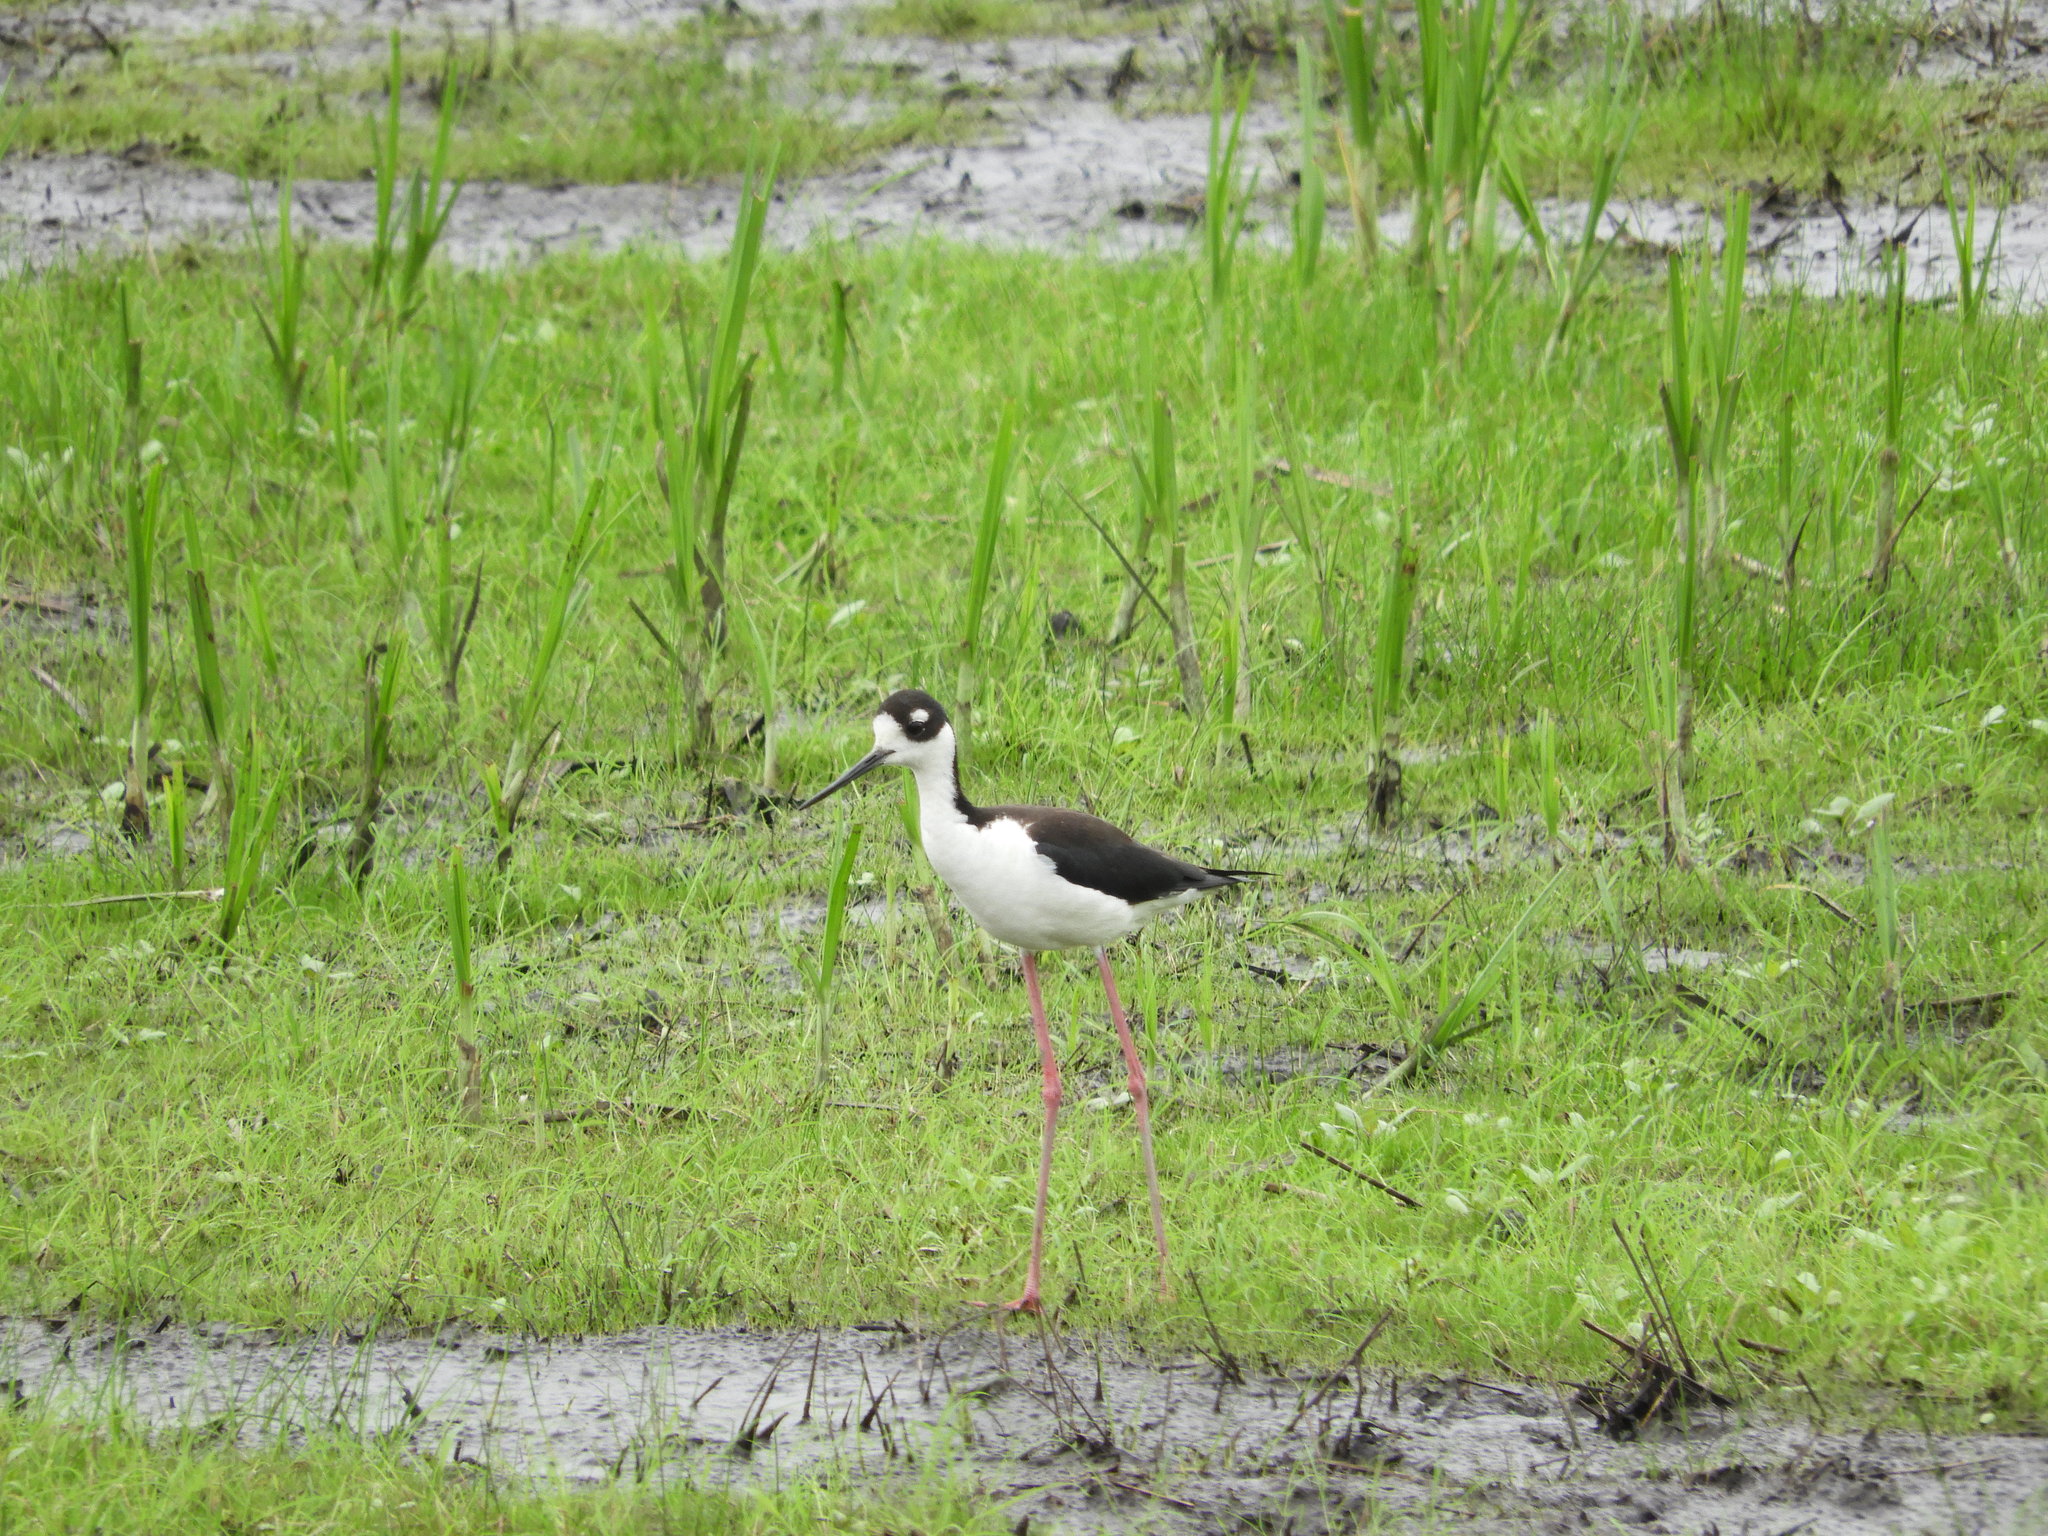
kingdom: Animalia
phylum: Chordata
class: Aves
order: Charadriiformes
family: Recurvirostridae
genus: Himantopus
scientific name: Himantopus mexicanus
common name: Black-necked stilt
